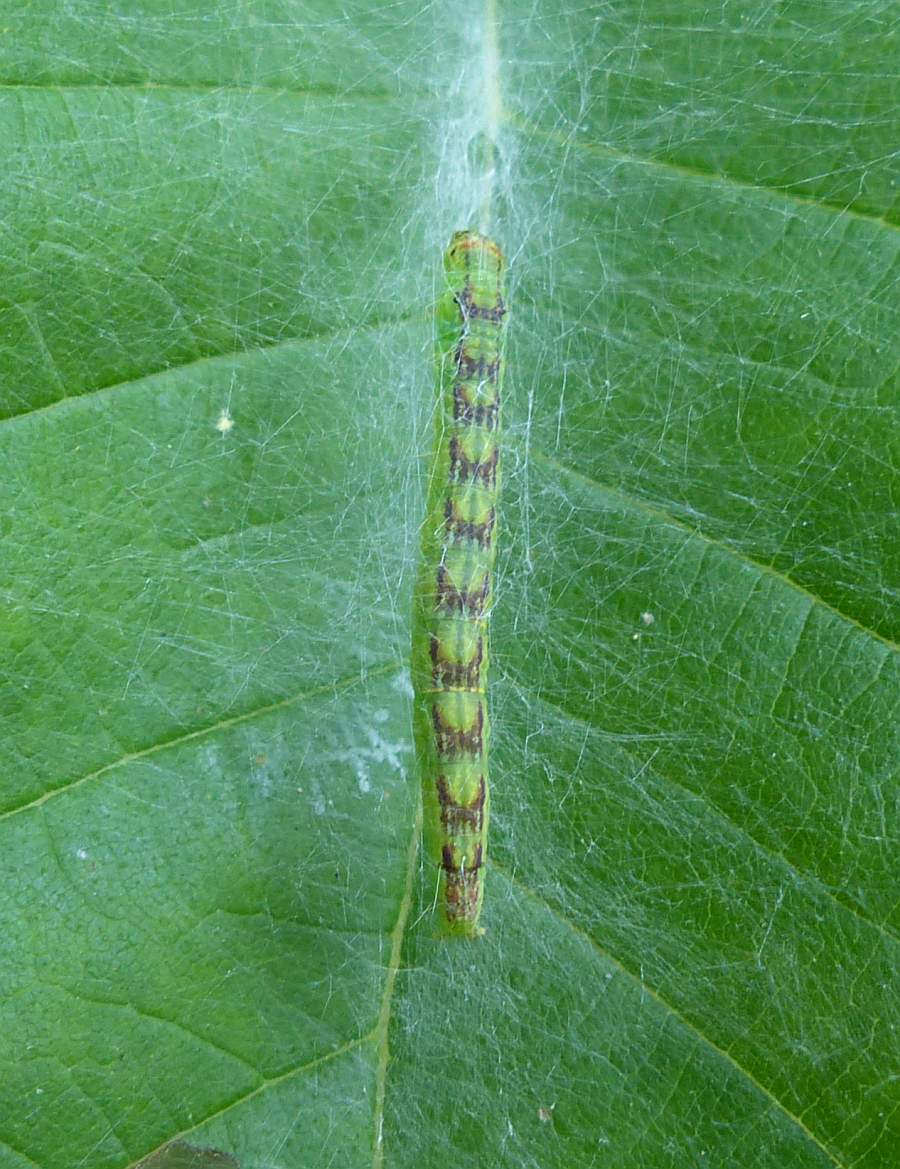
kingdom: Animalia
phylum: Arthropoda
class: Insecta
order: Lepidoptera
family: Pyralidae
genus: Oreana
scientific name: Oreana unicolorella
